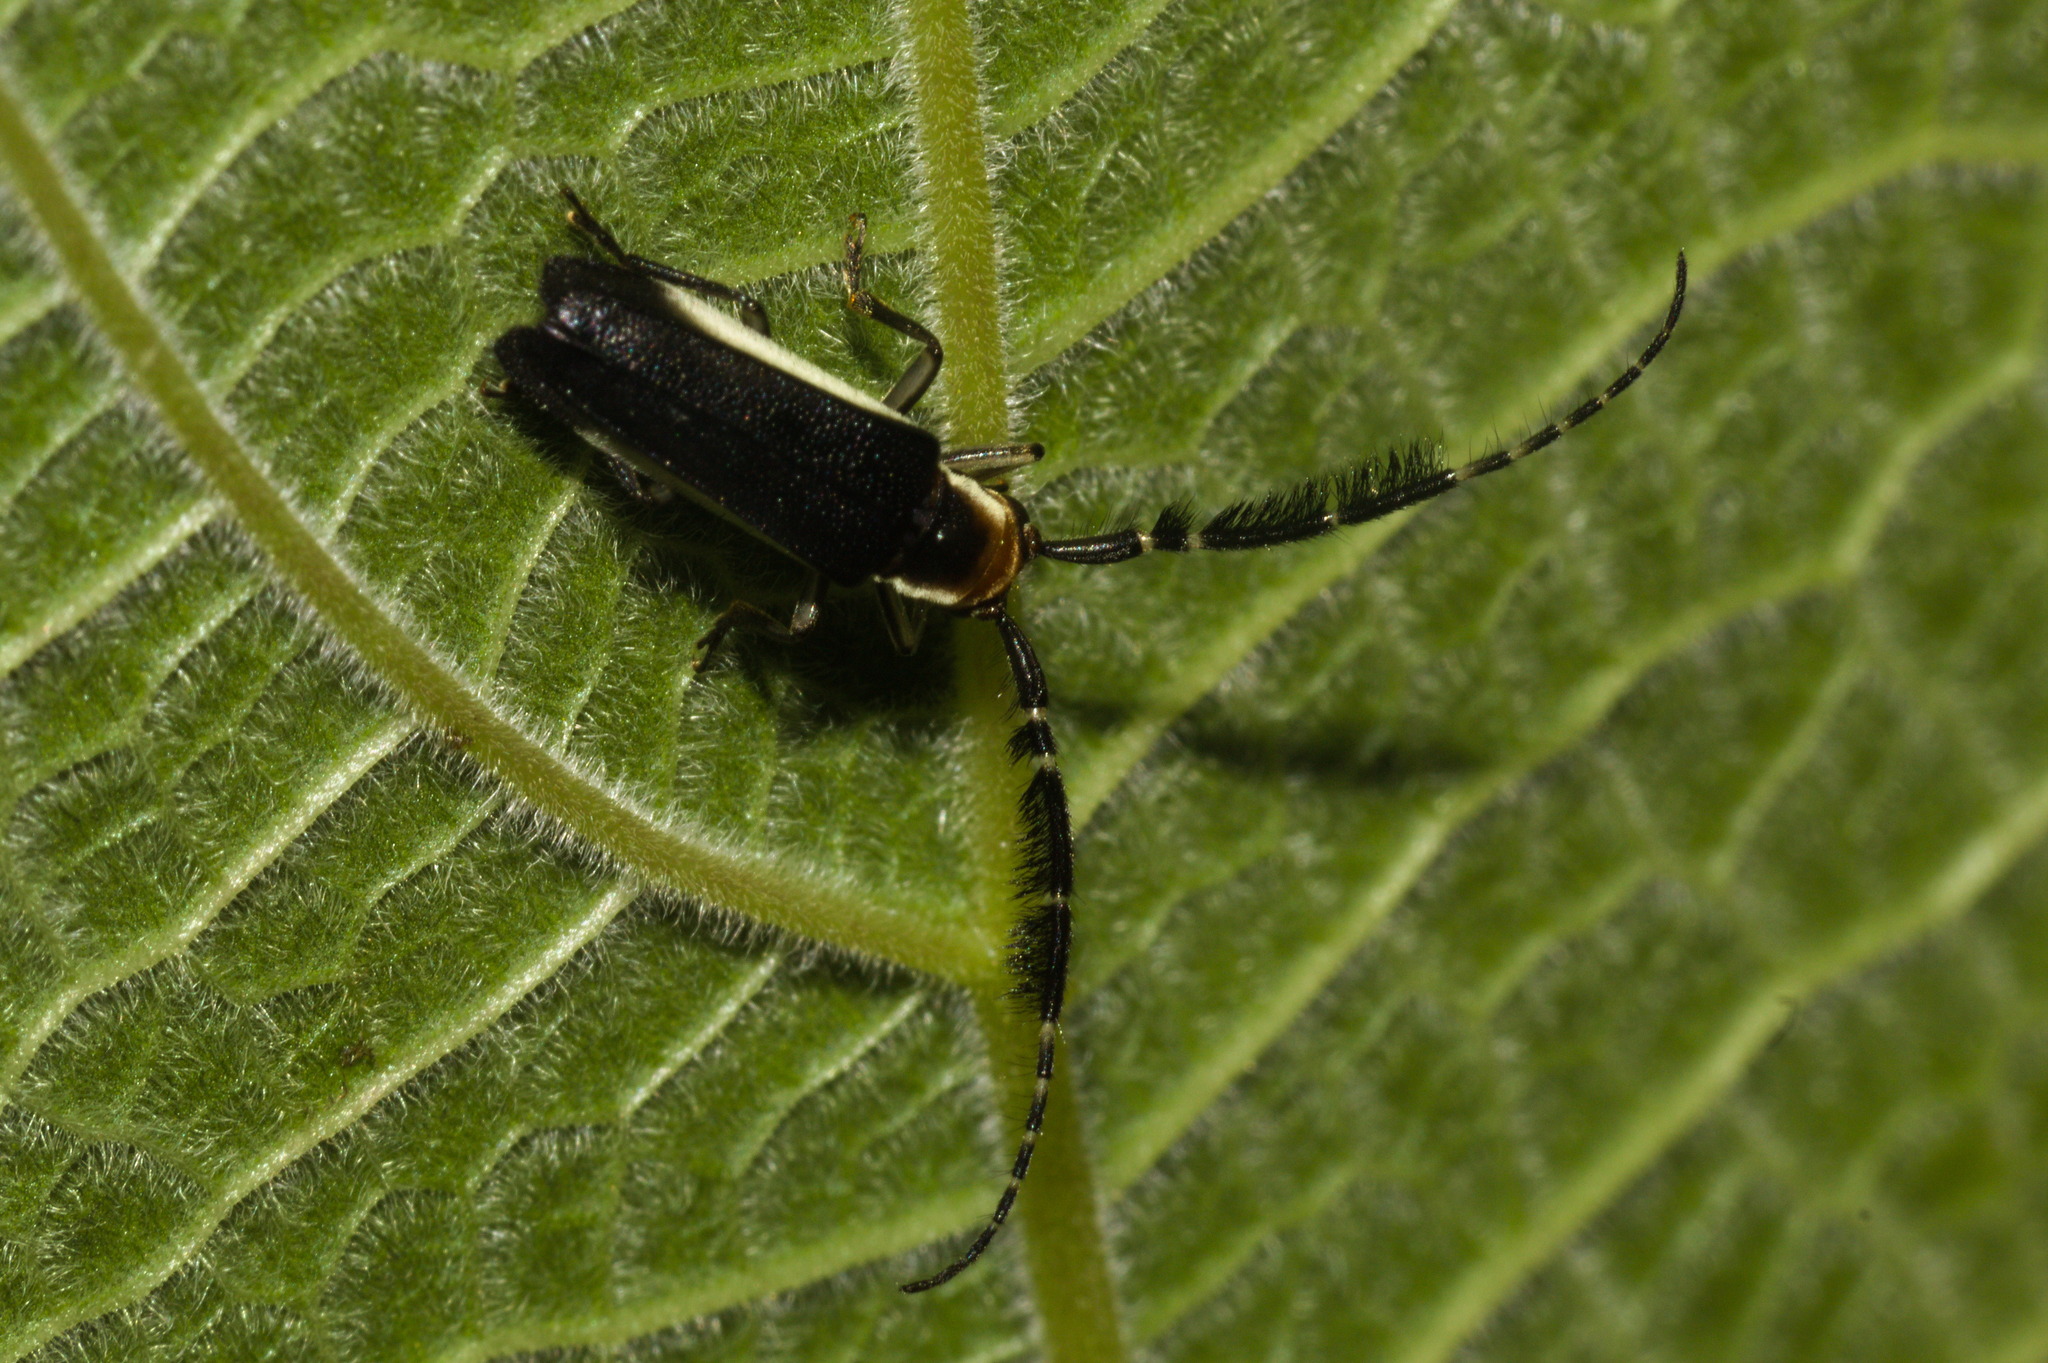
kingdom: Animalia
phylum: Arthropoda
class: Insecta
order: Coleoptera
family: Cerambycidae
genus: Hemilophus
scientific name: Hemilophus leucogramma
